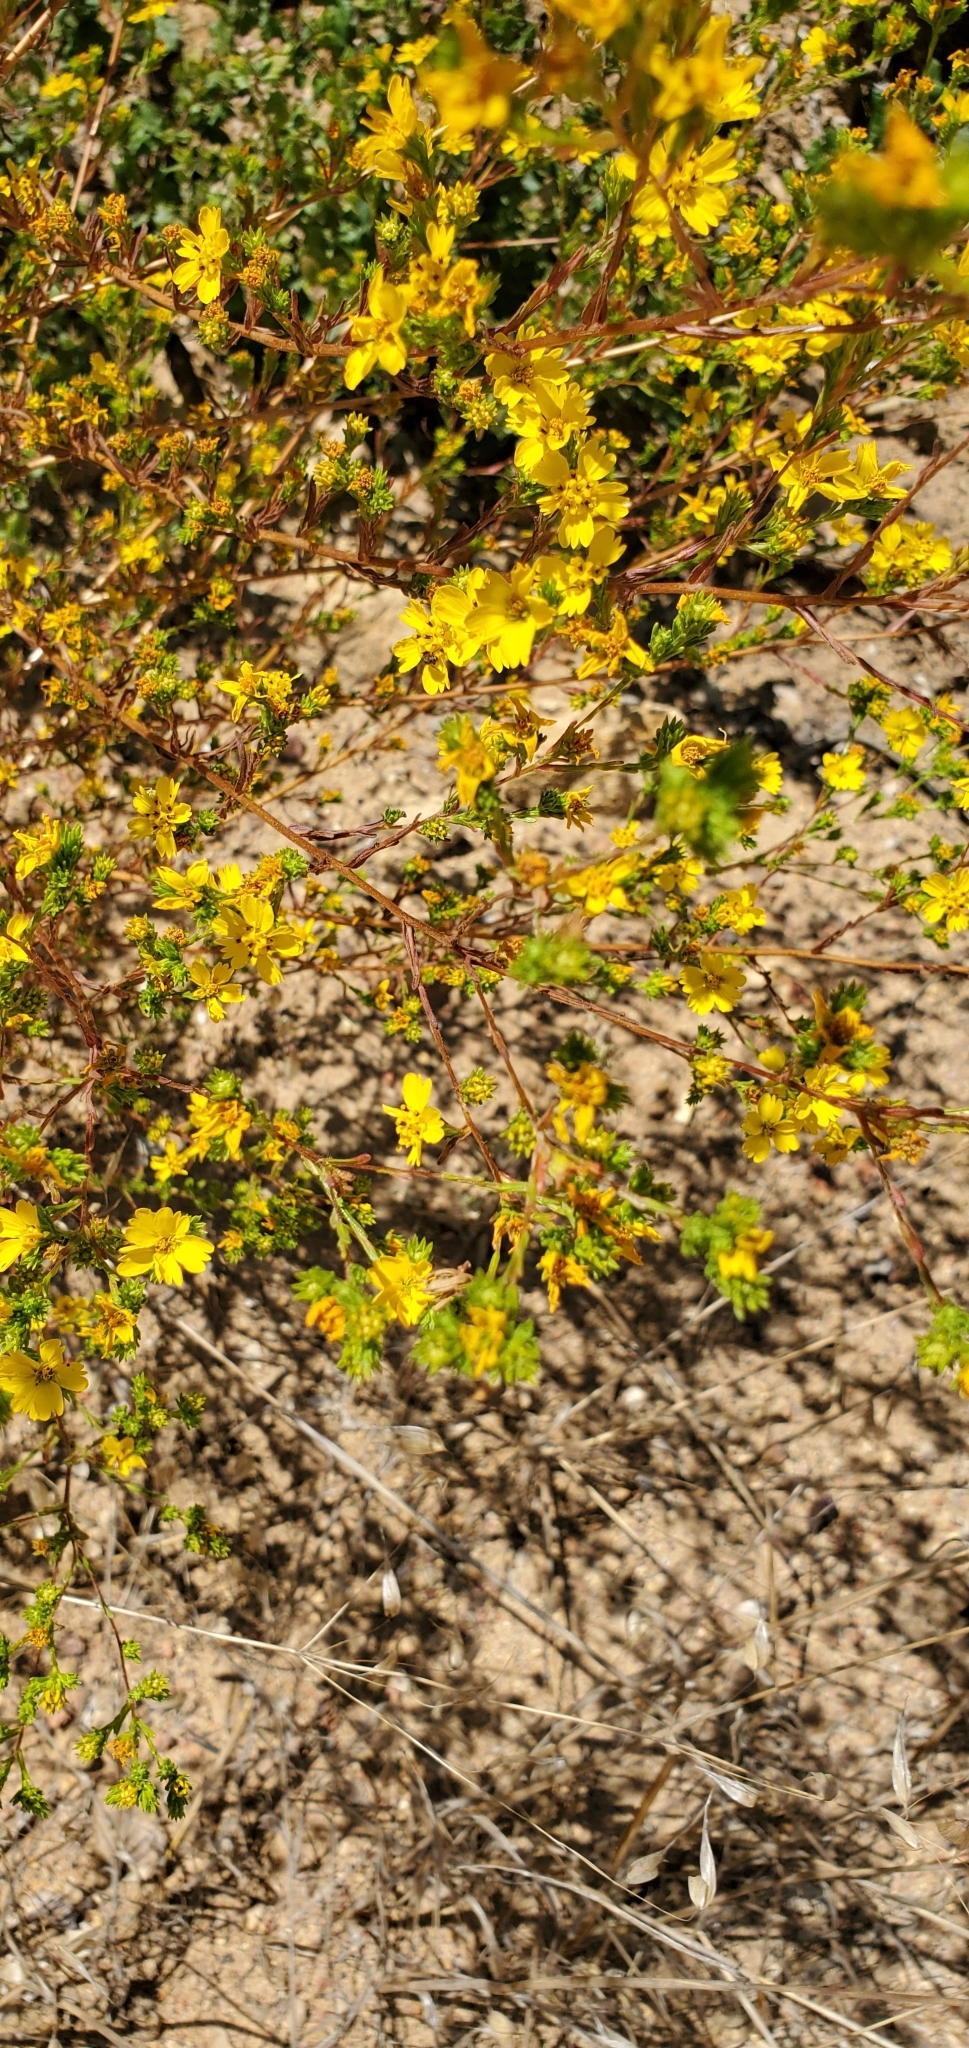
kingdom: Plantae
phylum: Tracheophyta
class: Magnoliopsida
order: Asterales
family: Asteraceae
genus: Deinandra
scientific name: Deinandra fasciculata
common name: Clustered tarweed
